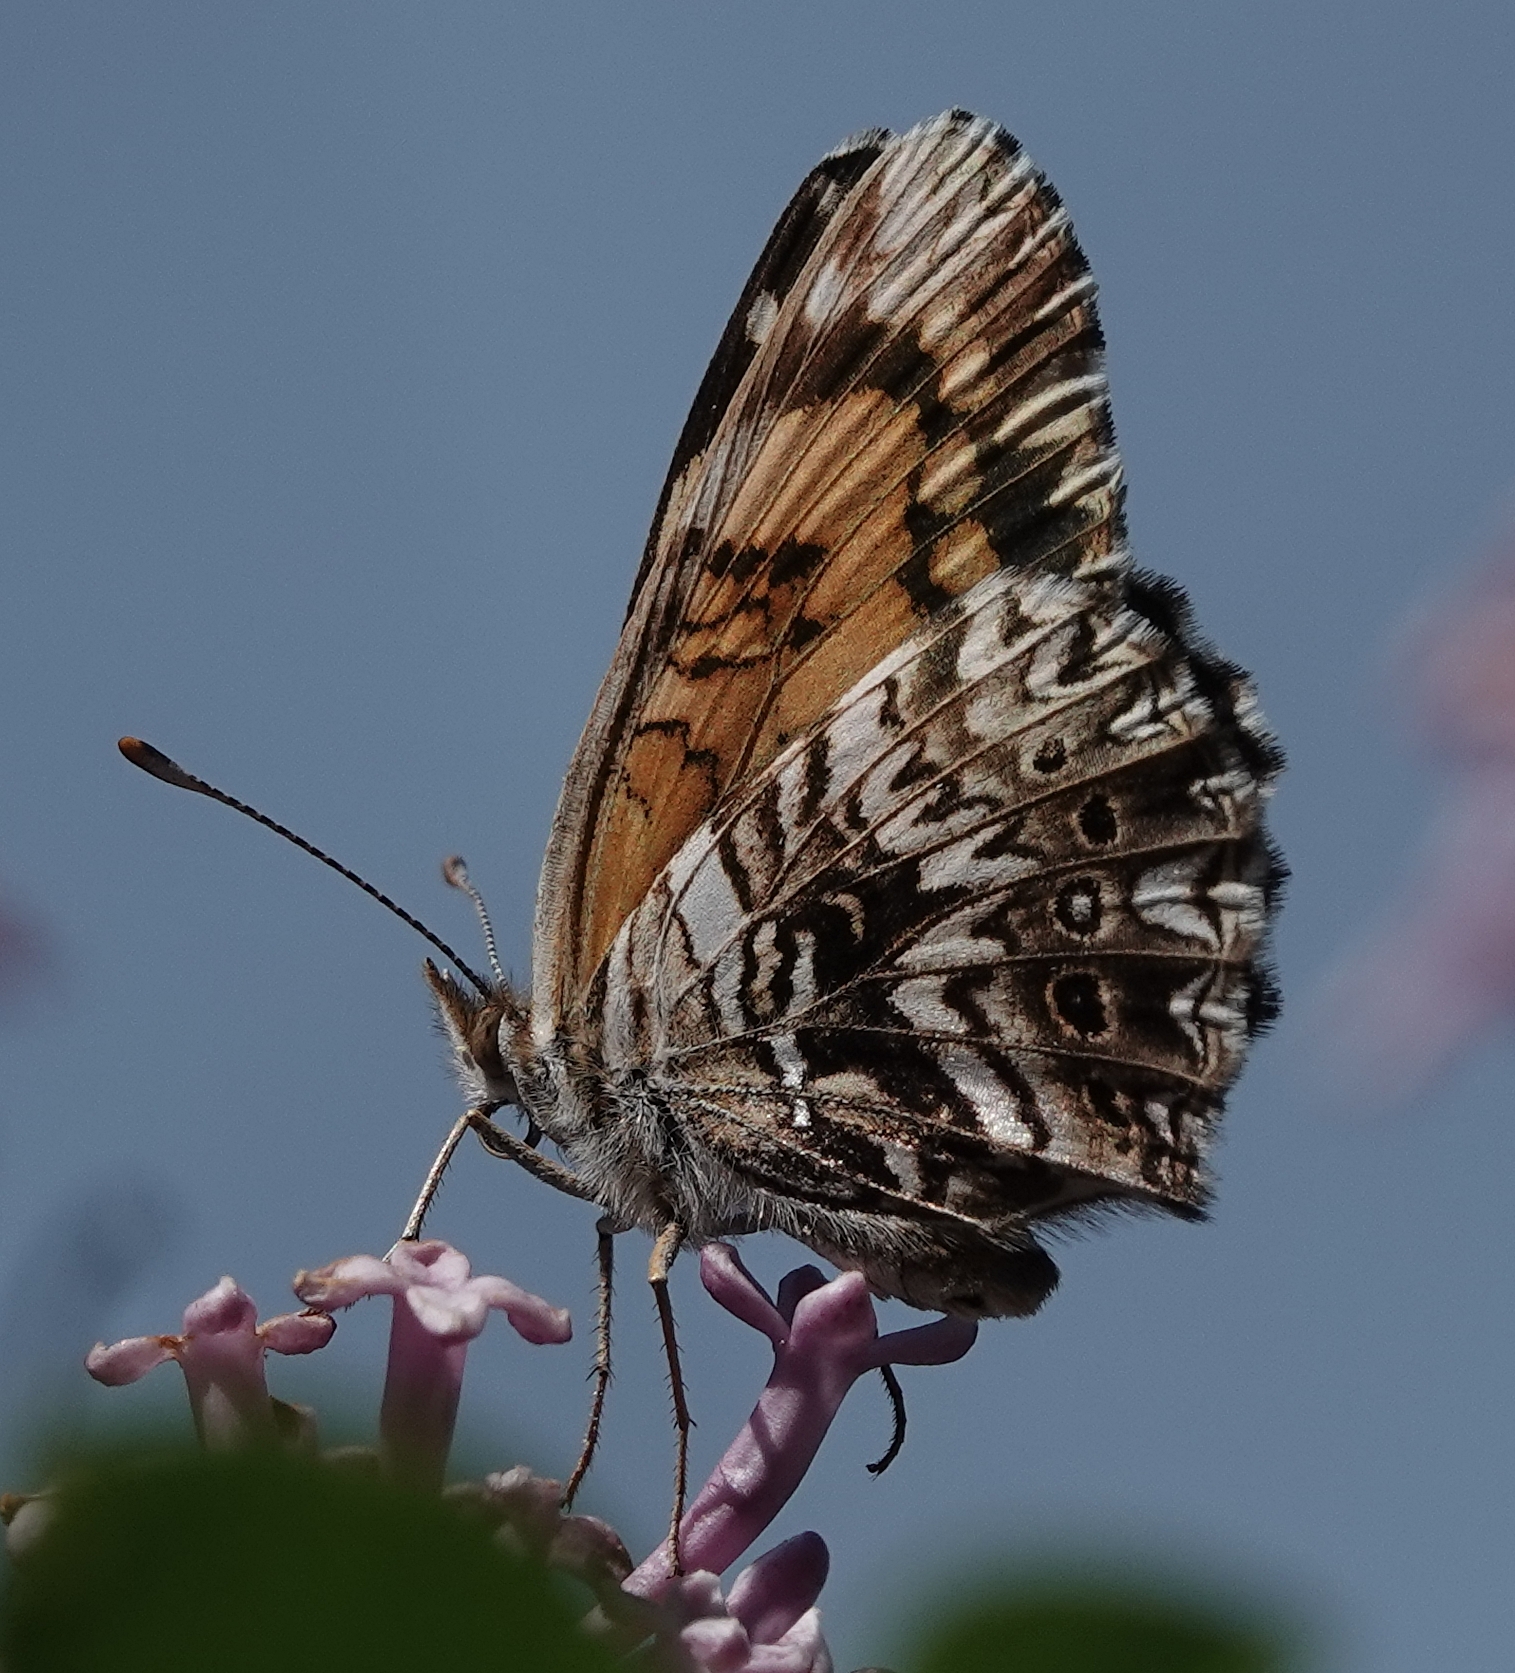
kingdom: Animalia
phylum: Arthropoda
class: Insecta
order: Lepidoptera
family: Nymphalidae
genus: Chlosyne
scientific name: Chlosyne gorgone
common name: Gorgone checkerspot
